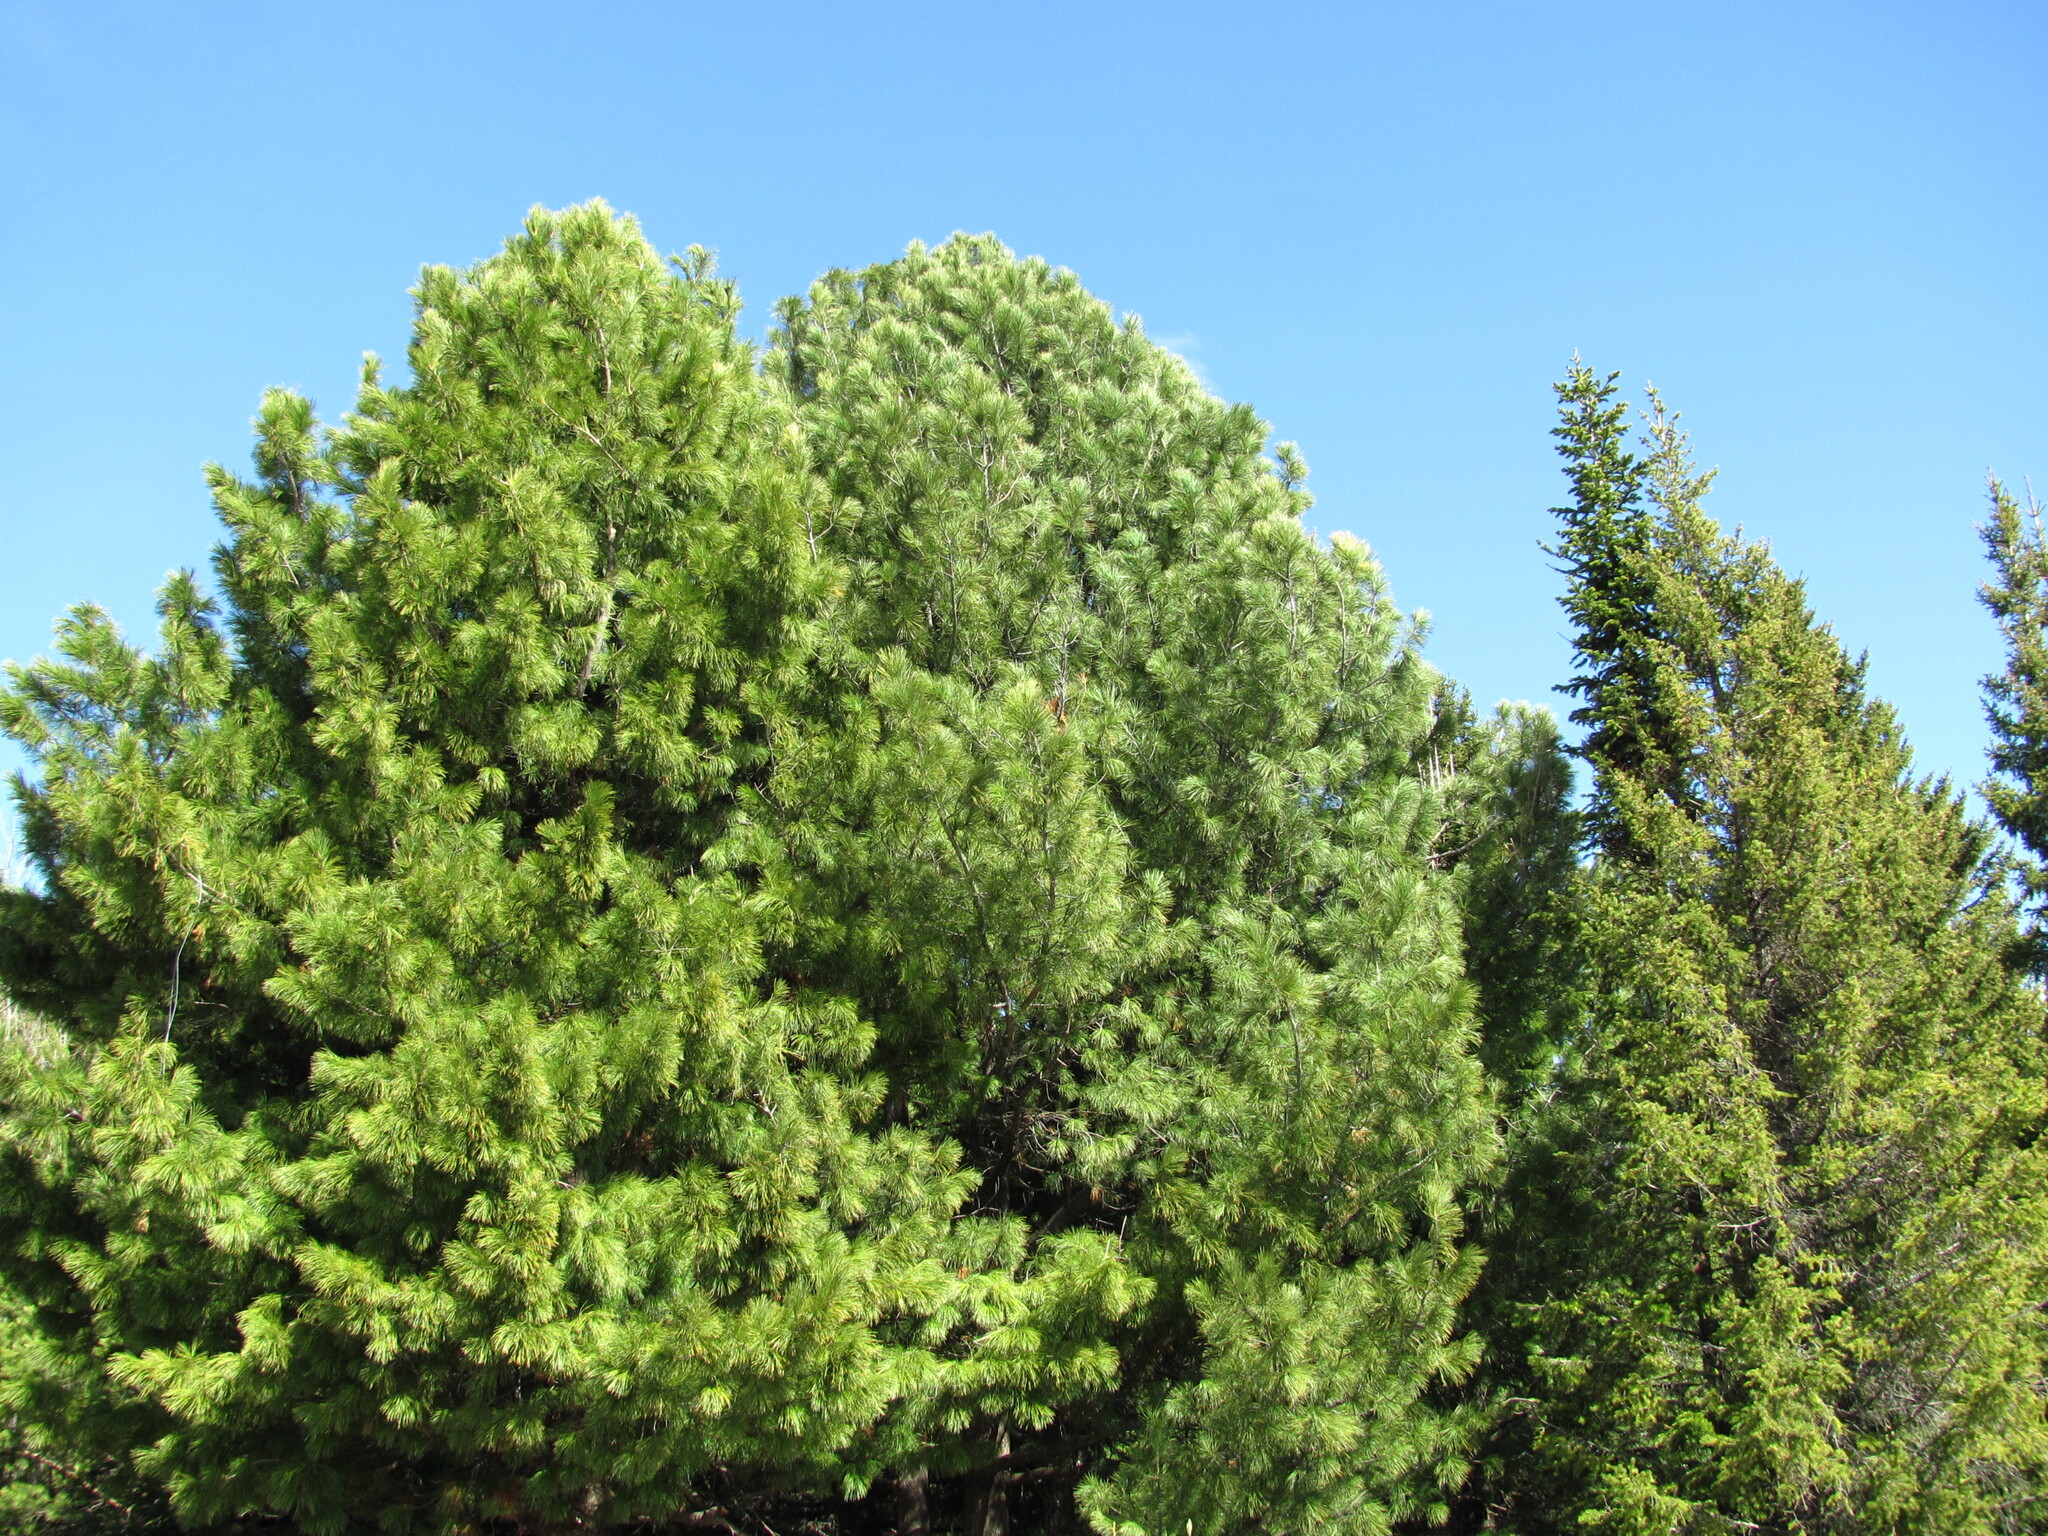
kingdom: Plantae
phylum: Tracheophyta
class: Pinopsida
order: Pinales
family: Pinaceae
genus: Pinus
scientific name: Pinus sibirica
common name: Siberian pine
